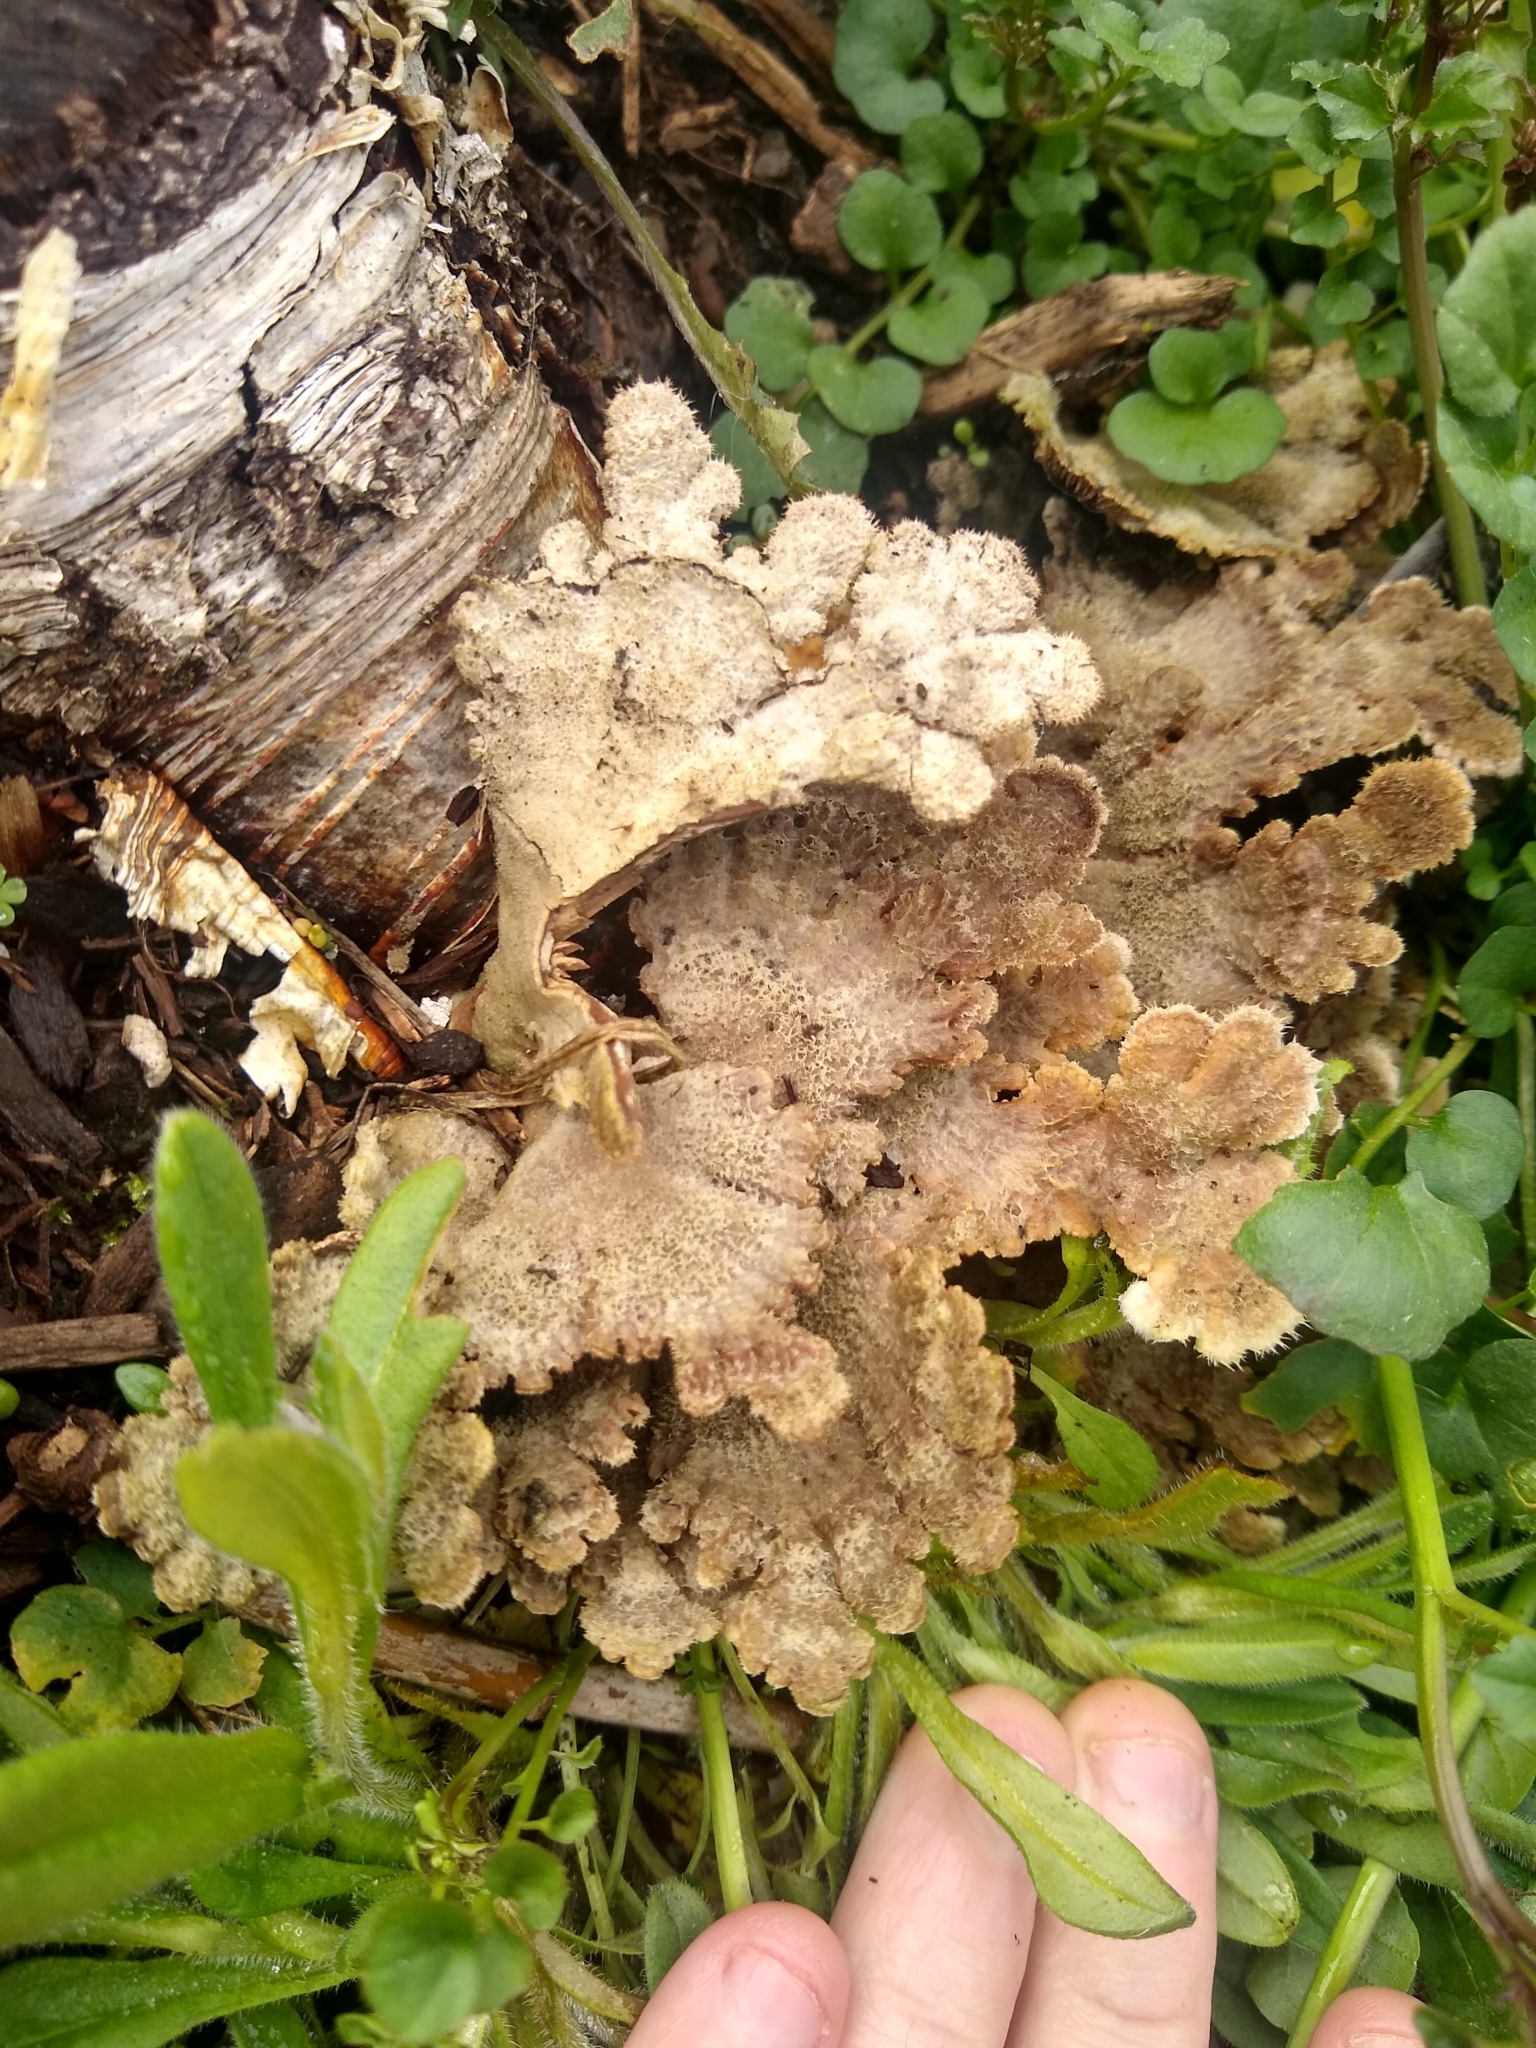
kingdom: Fungi
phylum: Basidiomycota
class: Agaricomycetes
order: Agaricales
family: Schizophyllaceae
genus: Schizophyllum
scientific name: Schizophyllum commune
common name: Common porecrust
